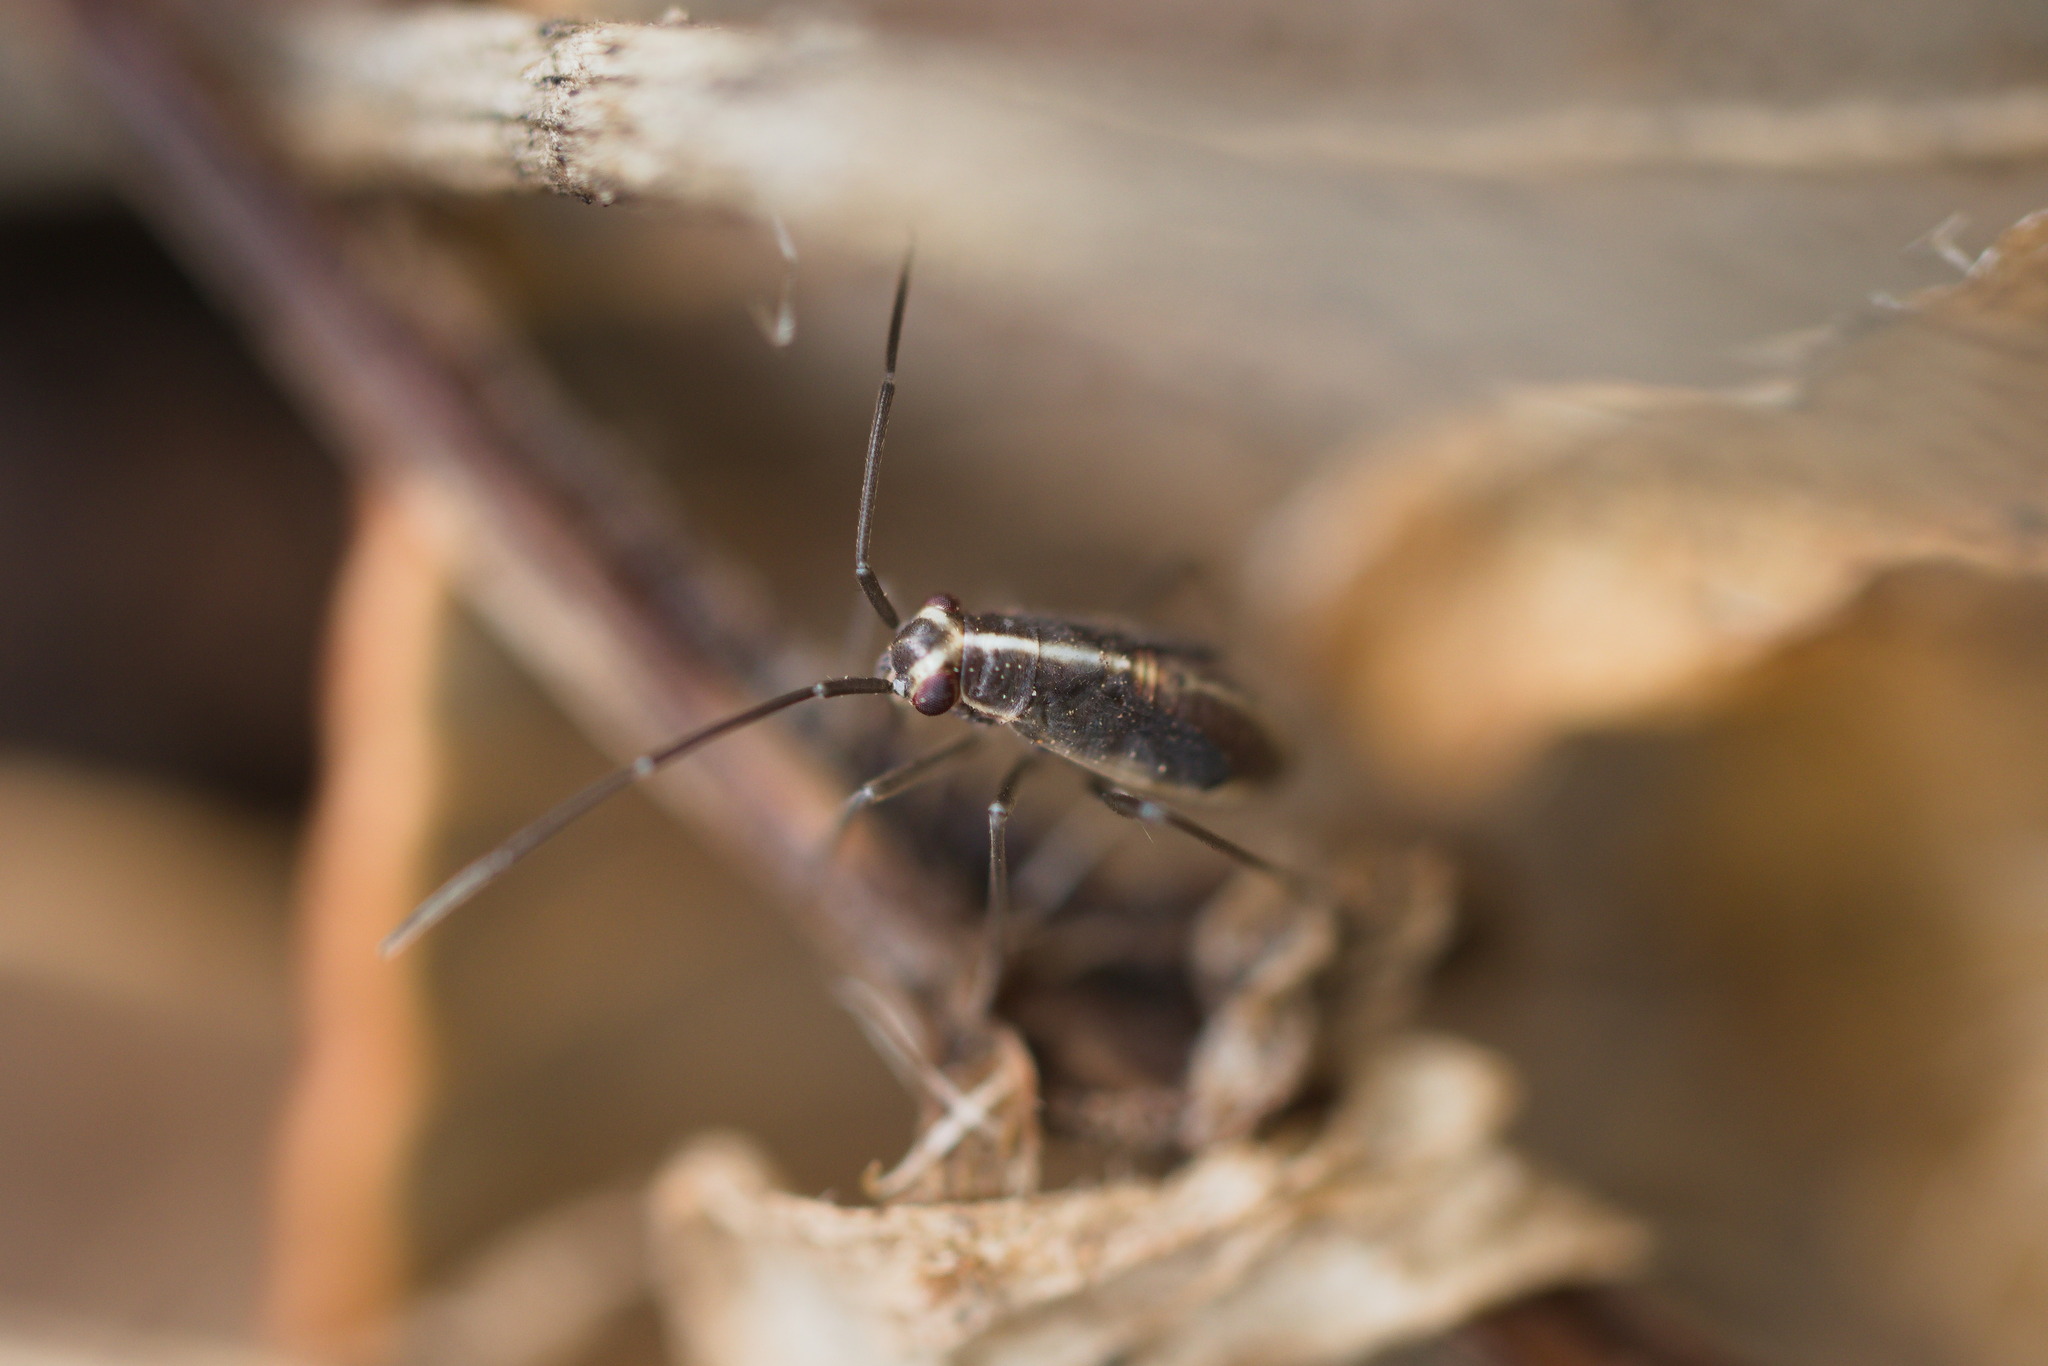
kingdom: Animalia
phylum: Arthropoda
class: Insecta
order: Hemiptera
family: Miridae
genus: Stenoparedra
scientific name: Stenoparedra
